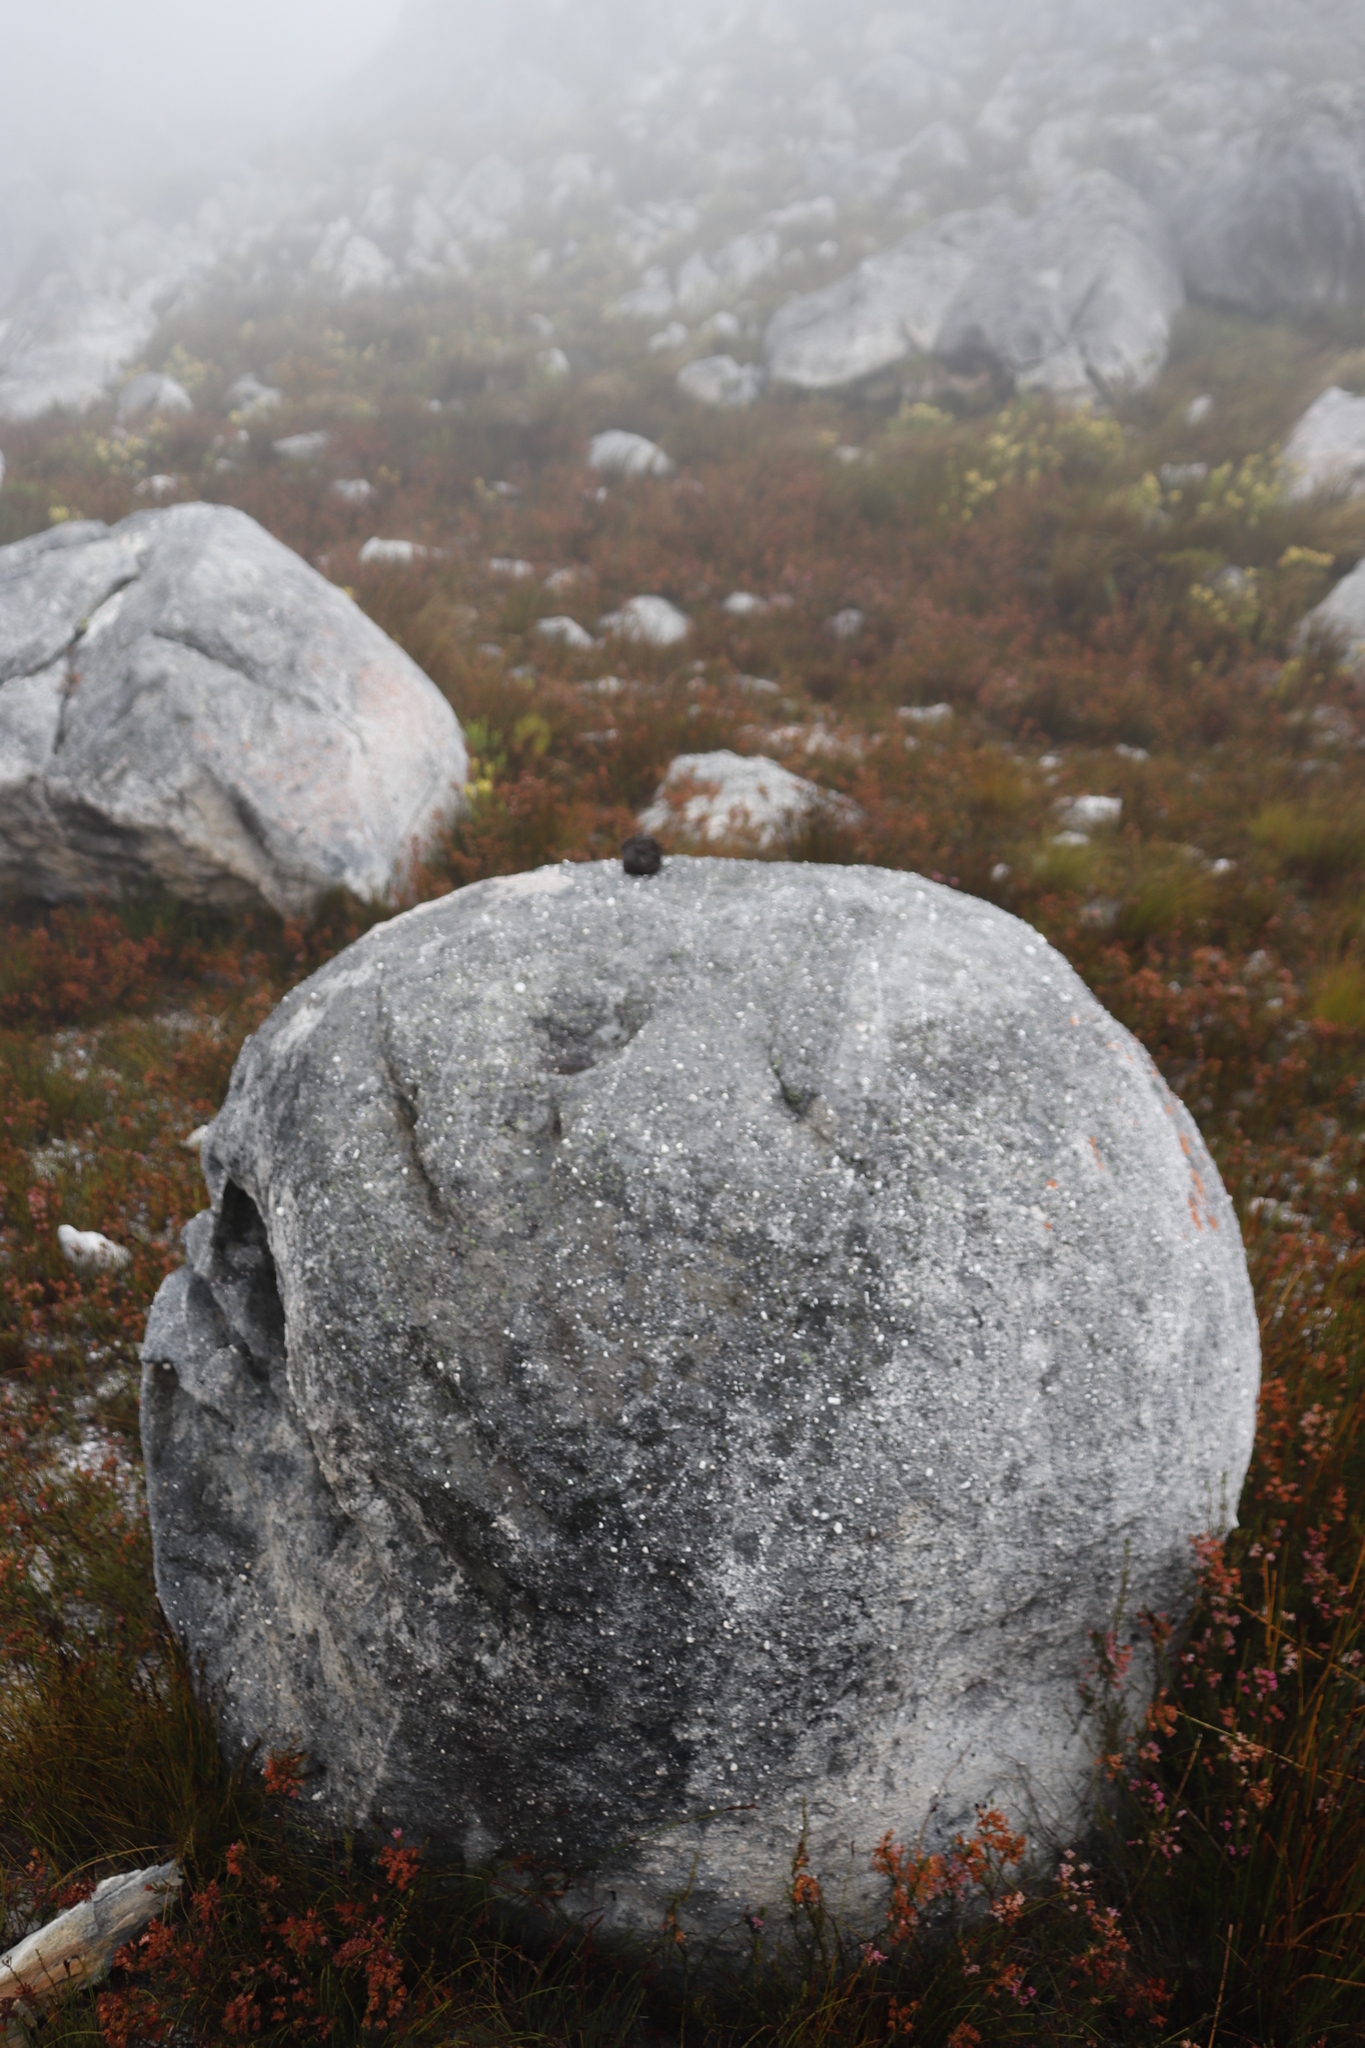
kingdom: Animalia
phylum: Chordata
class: Mammalia
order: Primates
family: Cercopithecidae
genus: Papio
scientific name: Papio ursinus
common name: Chacma baboon
